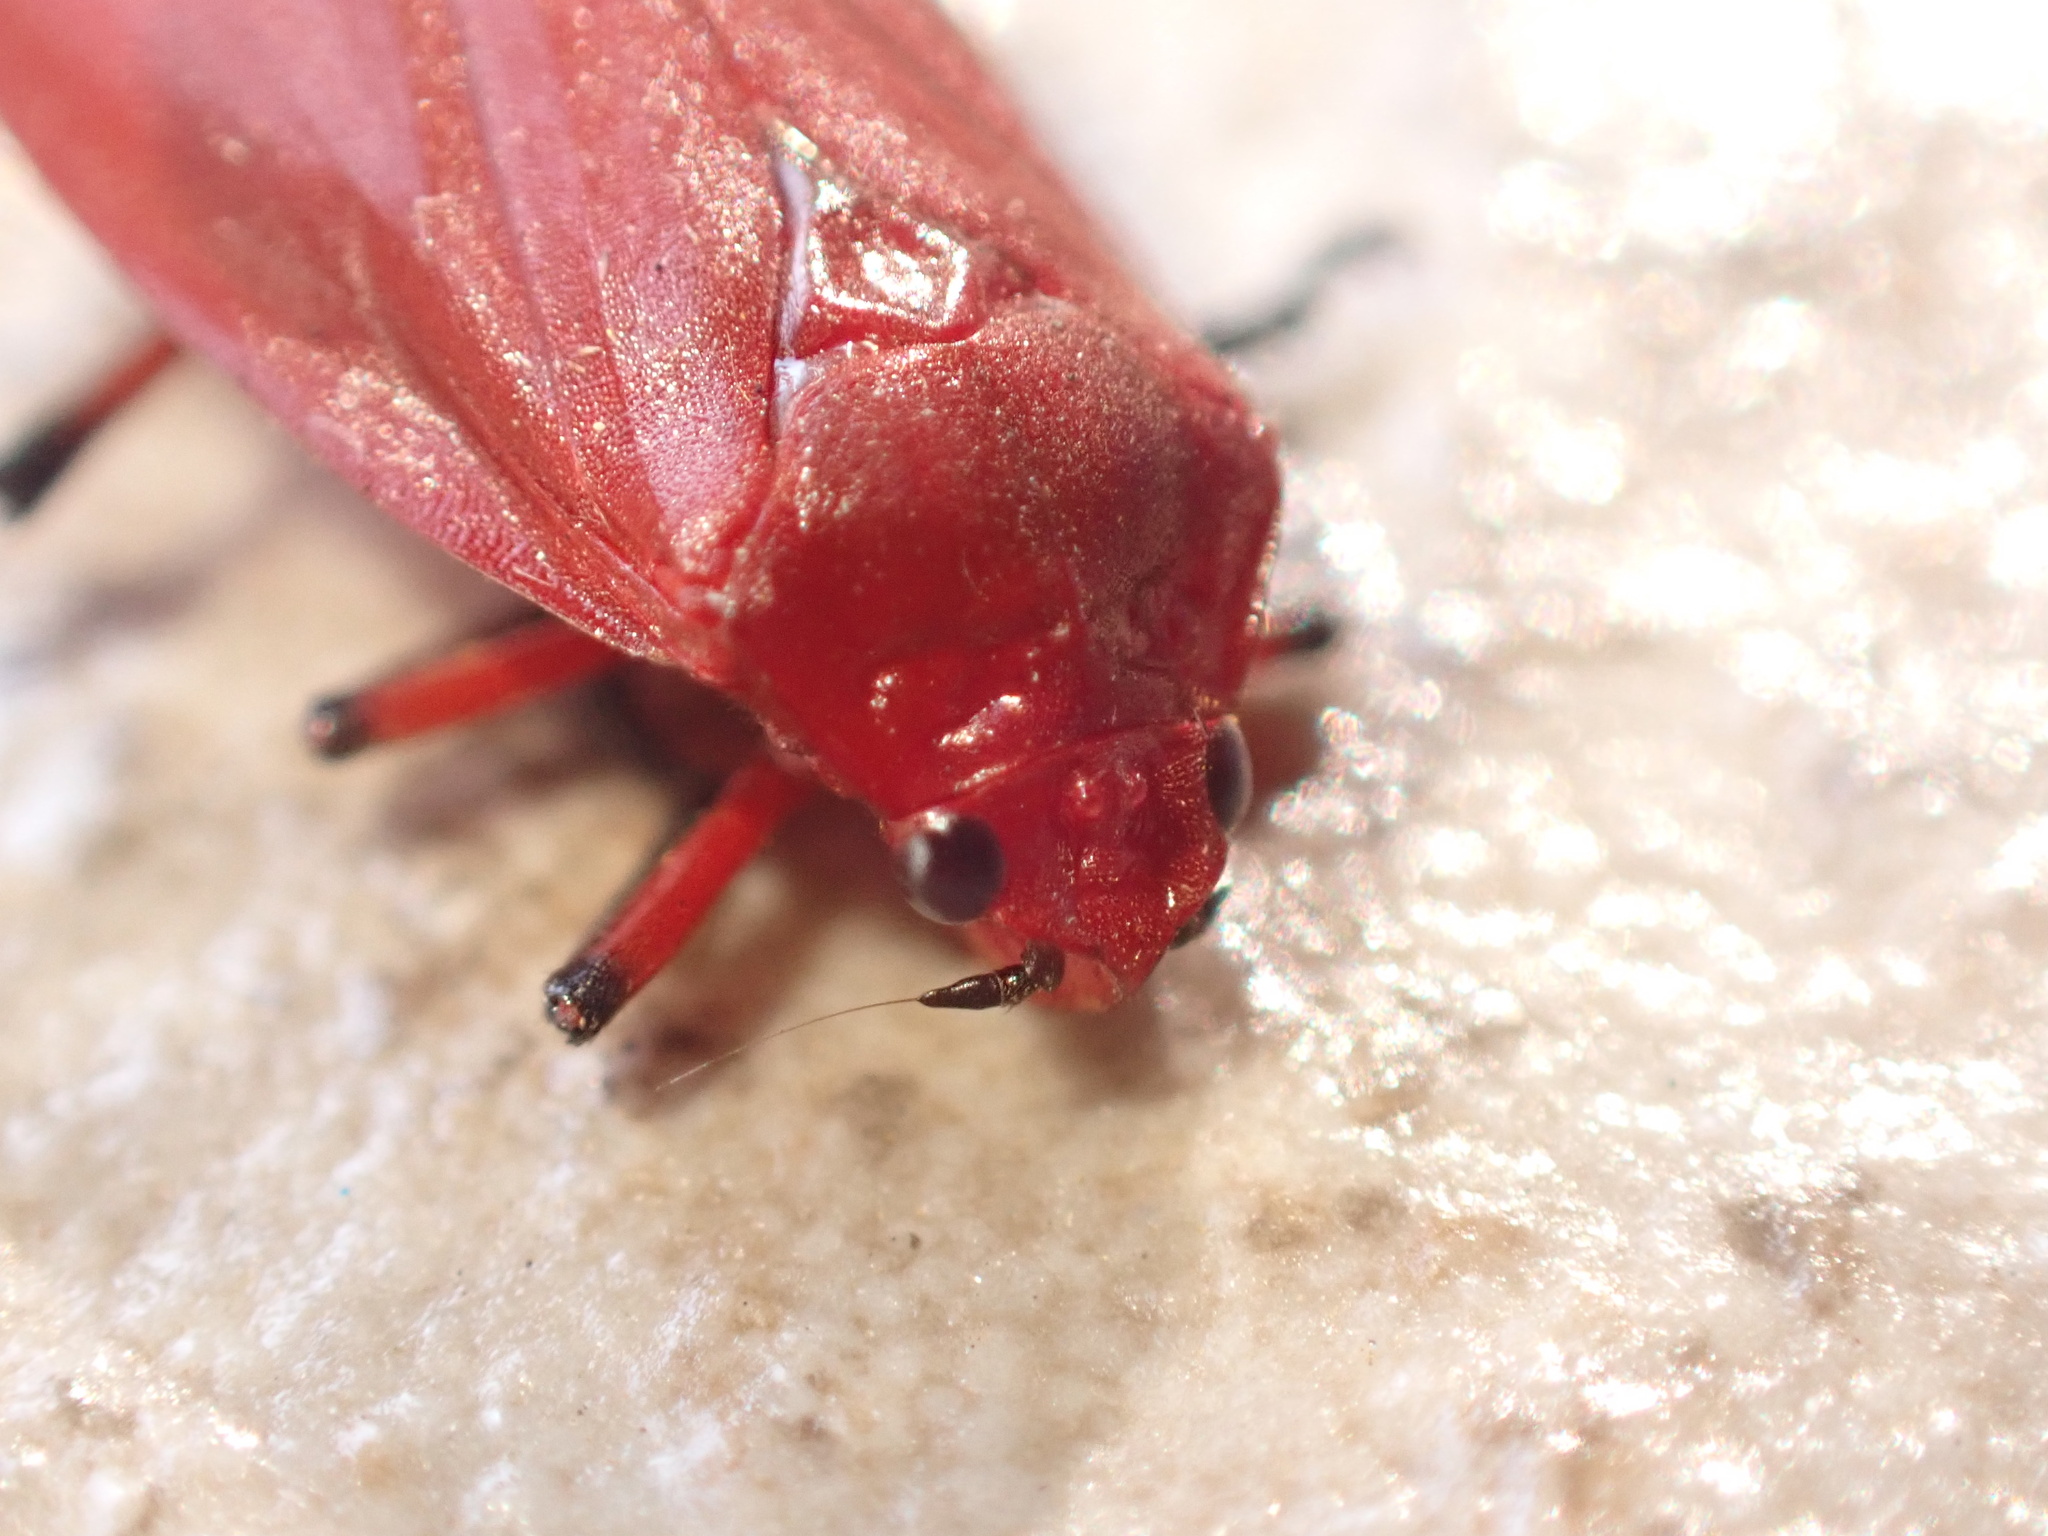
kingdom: Animalia
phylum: Arthropoda
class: Insecta
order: Hemiptera
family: Cercopidae
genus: Homalogrypota
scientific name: Homalogrypota coccinea
